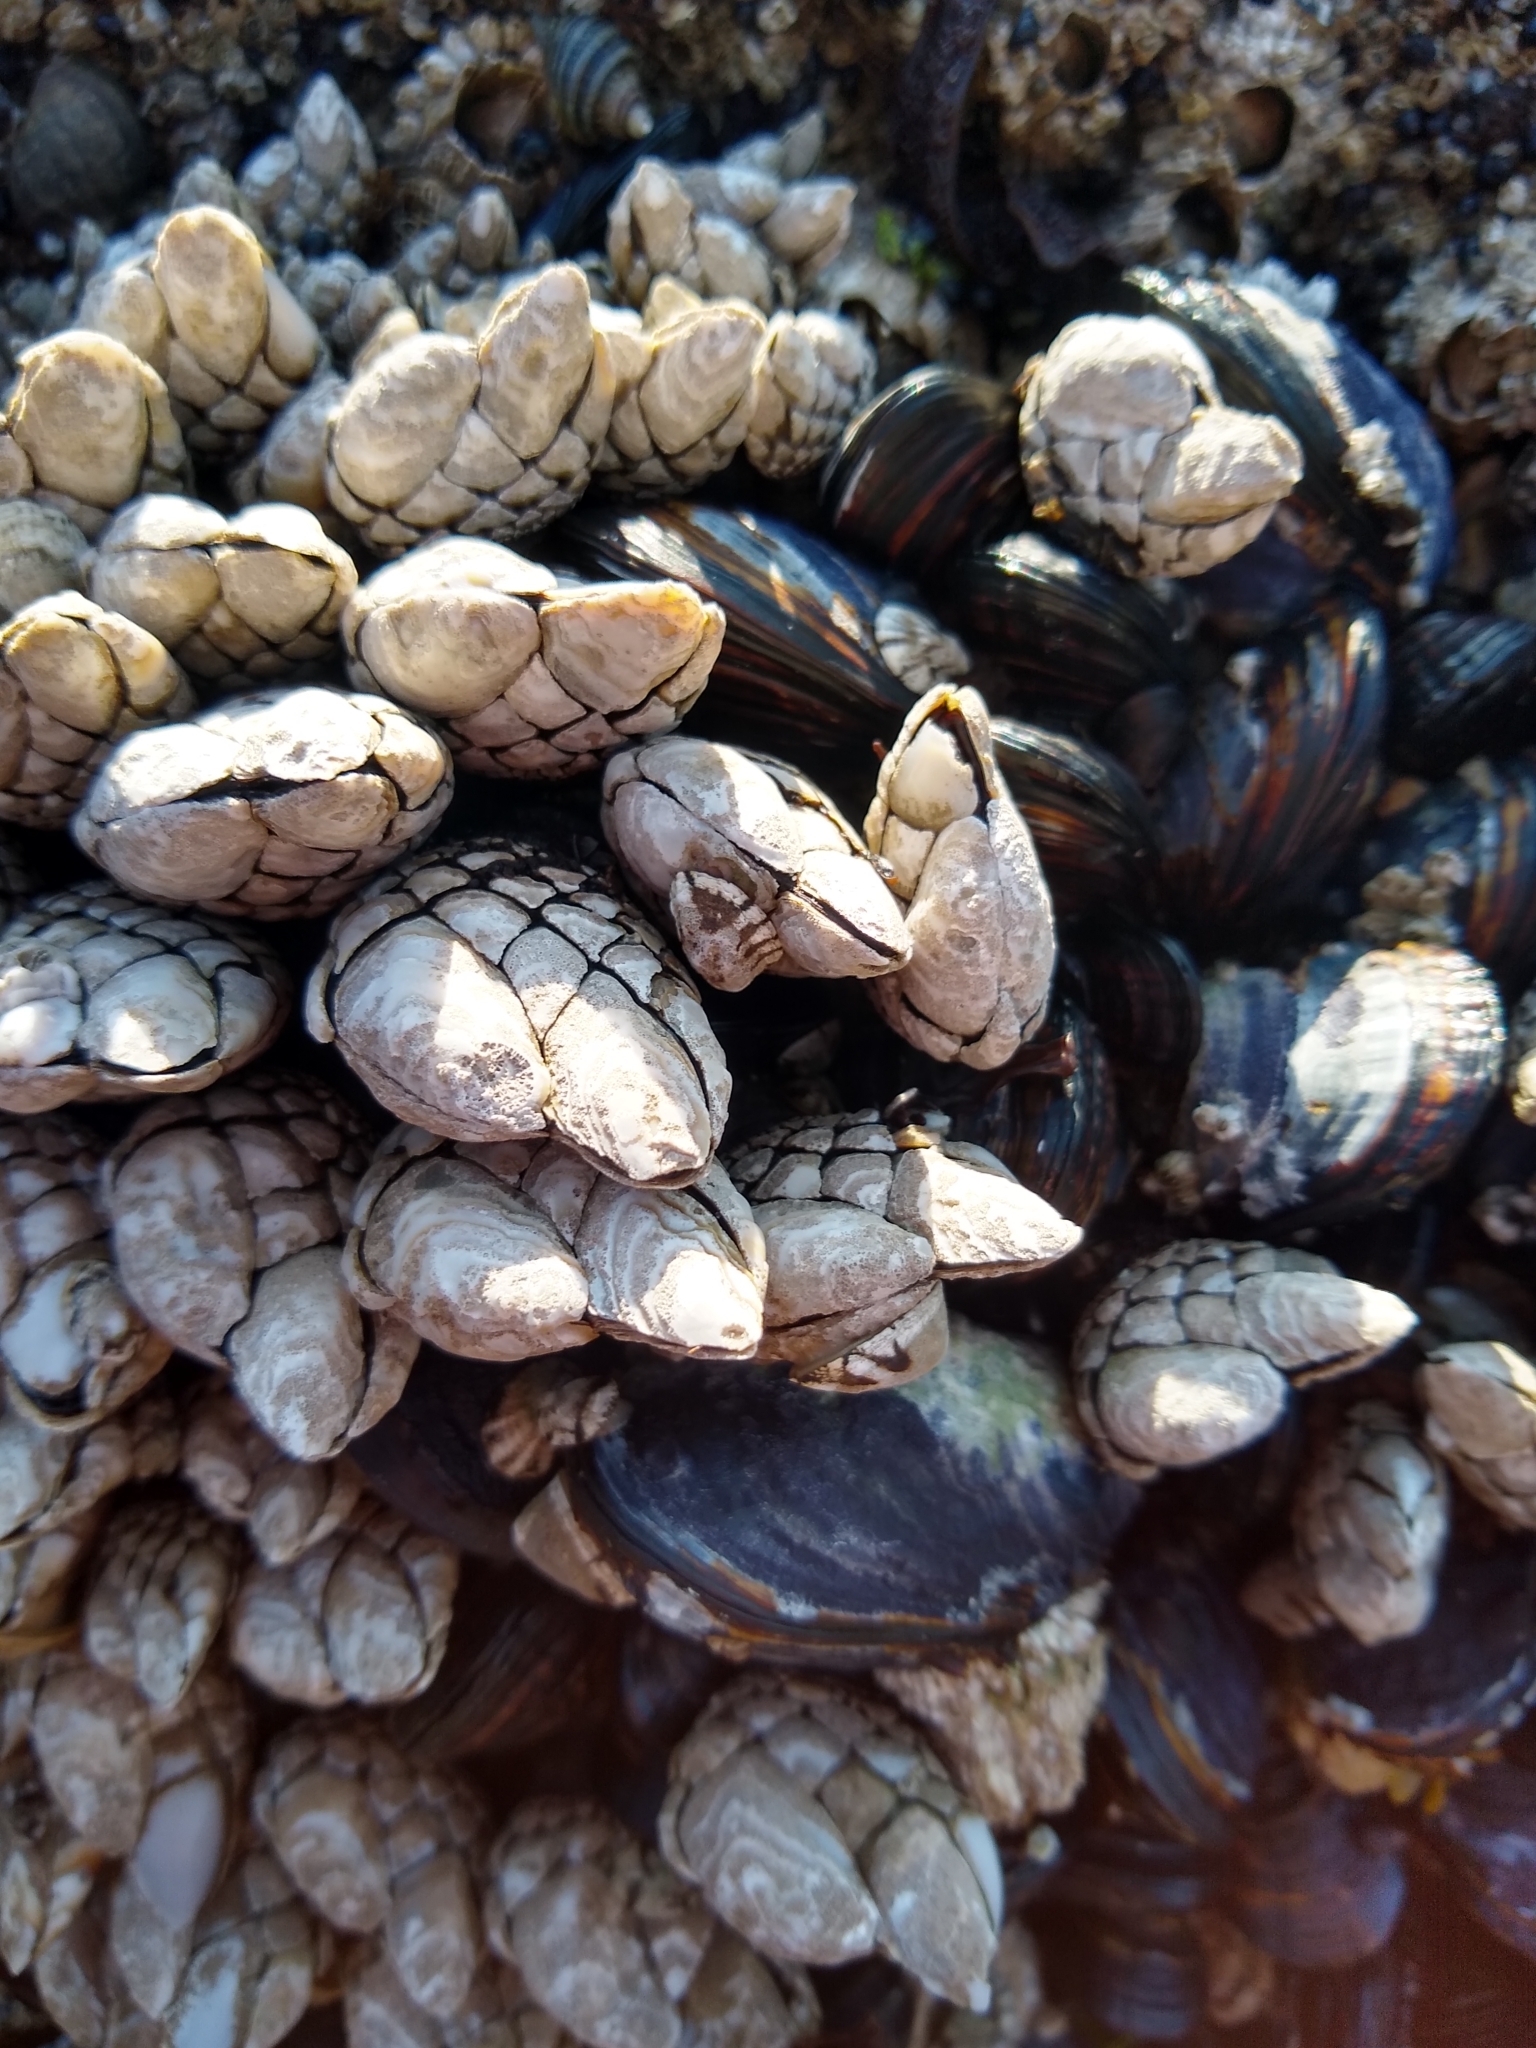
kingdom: Animalia
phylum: Arthropoda
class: Maxillopoda
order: Pedunculata
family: Pollicipedidae
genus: Pollicipes
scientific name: Pollicipes polymerus
